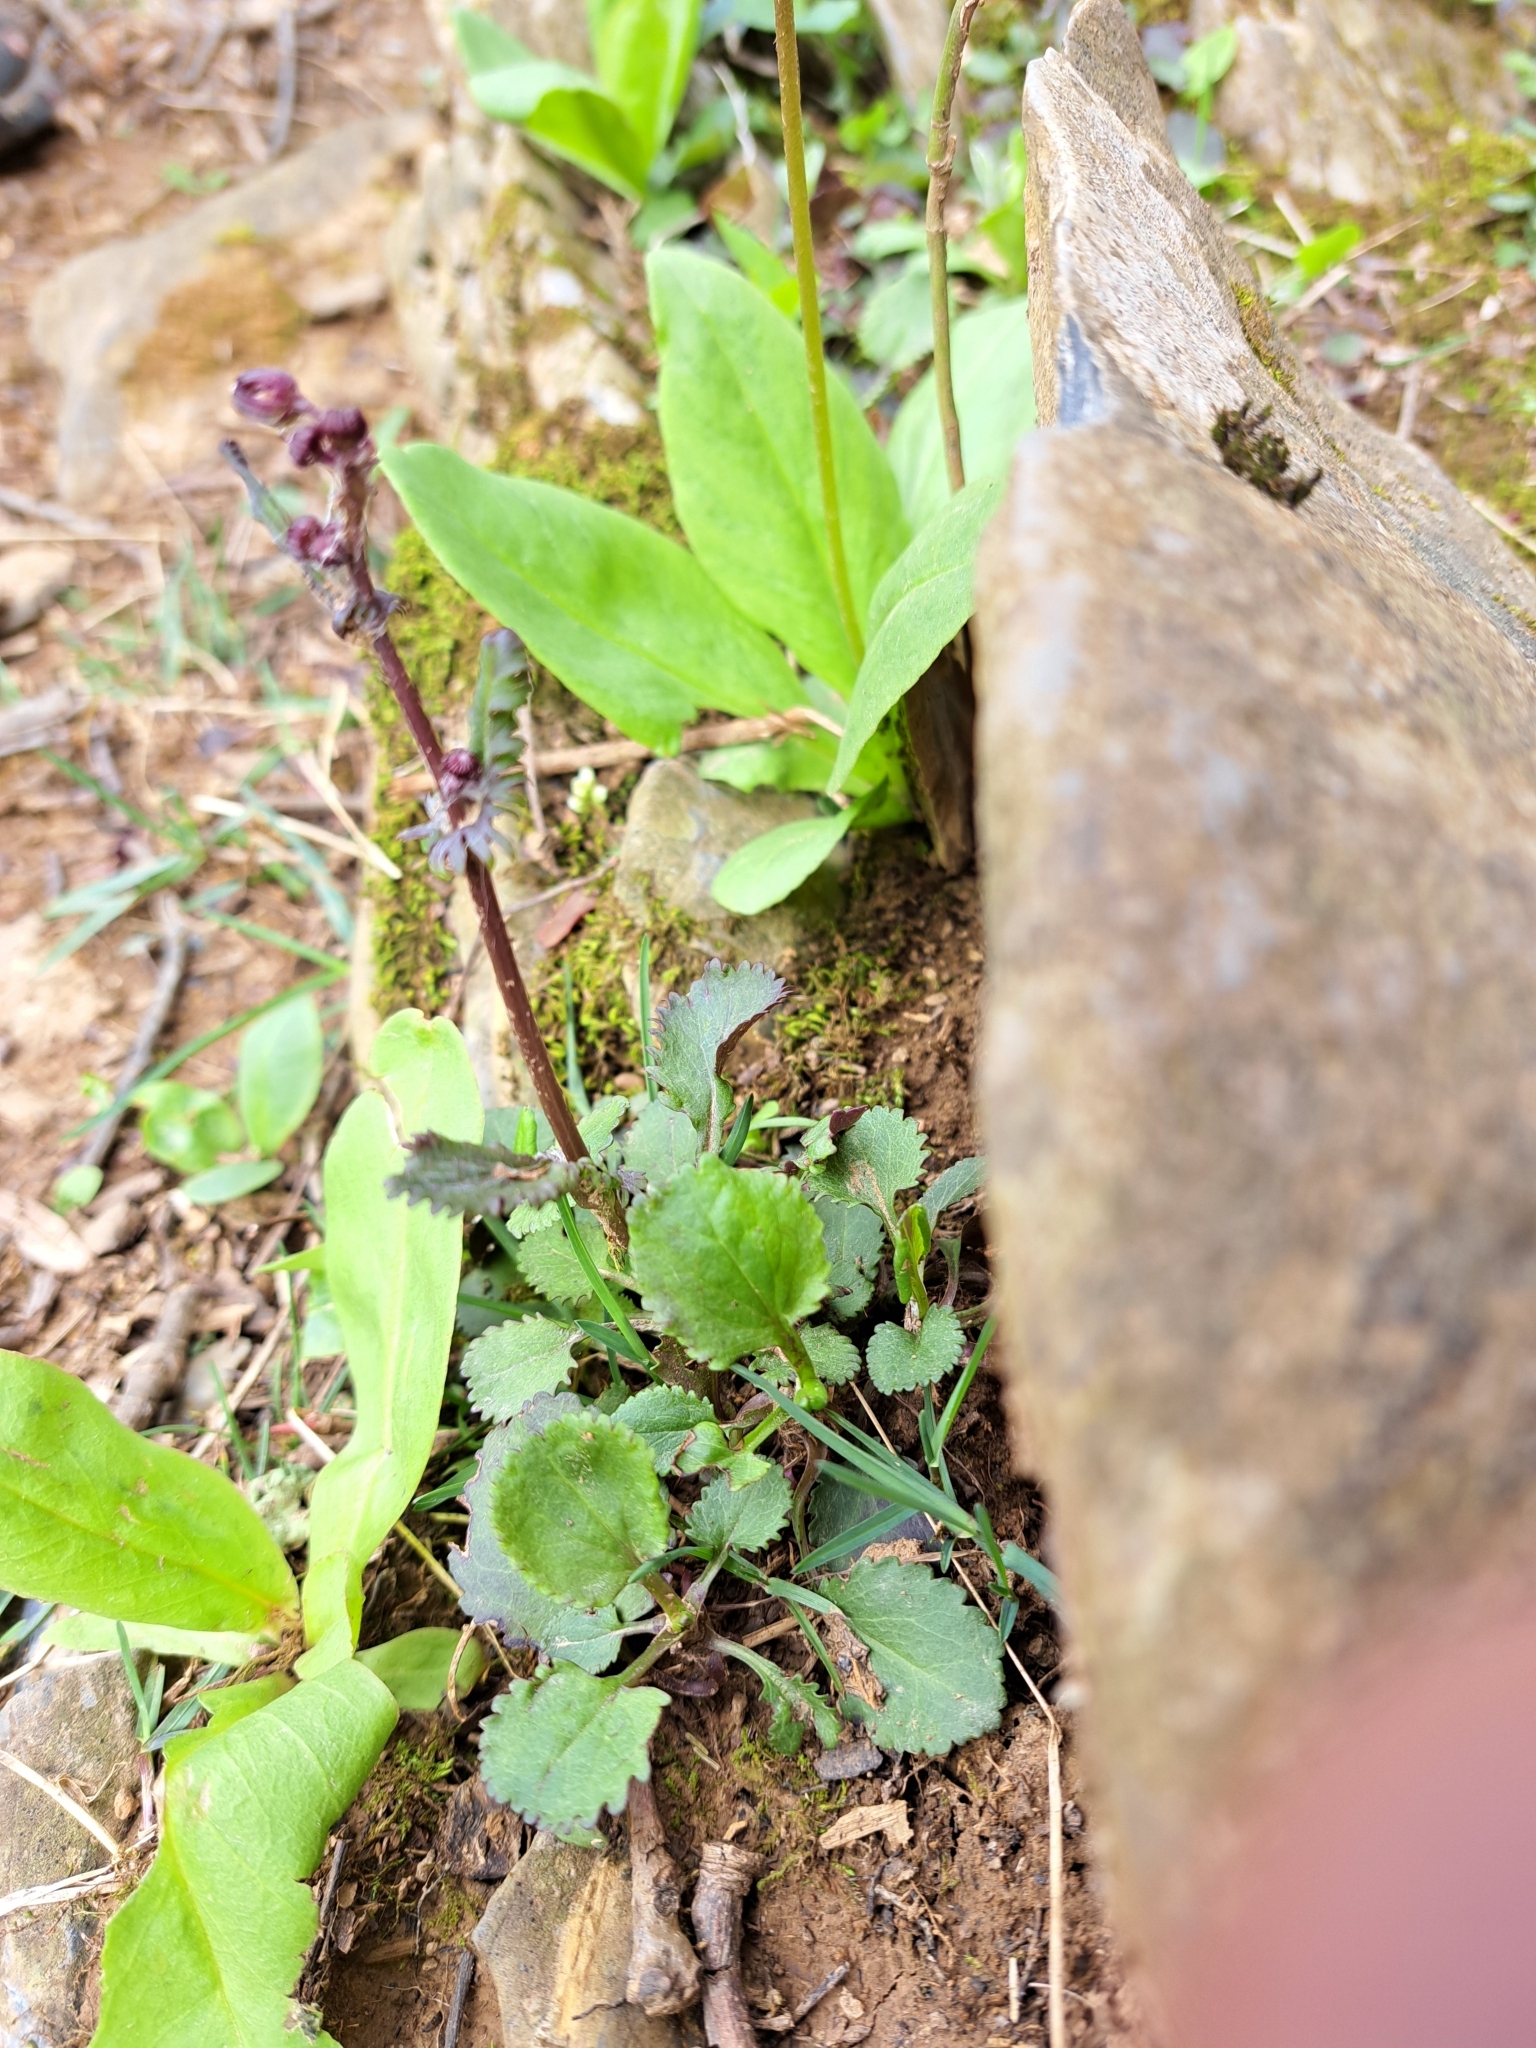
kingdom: Plantae
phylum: Tracheophyta
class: Magnoliopsida
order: Asterales
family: Asteraceae
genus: Packera
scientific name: Packera obovata
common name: Round-leaf ragwort
